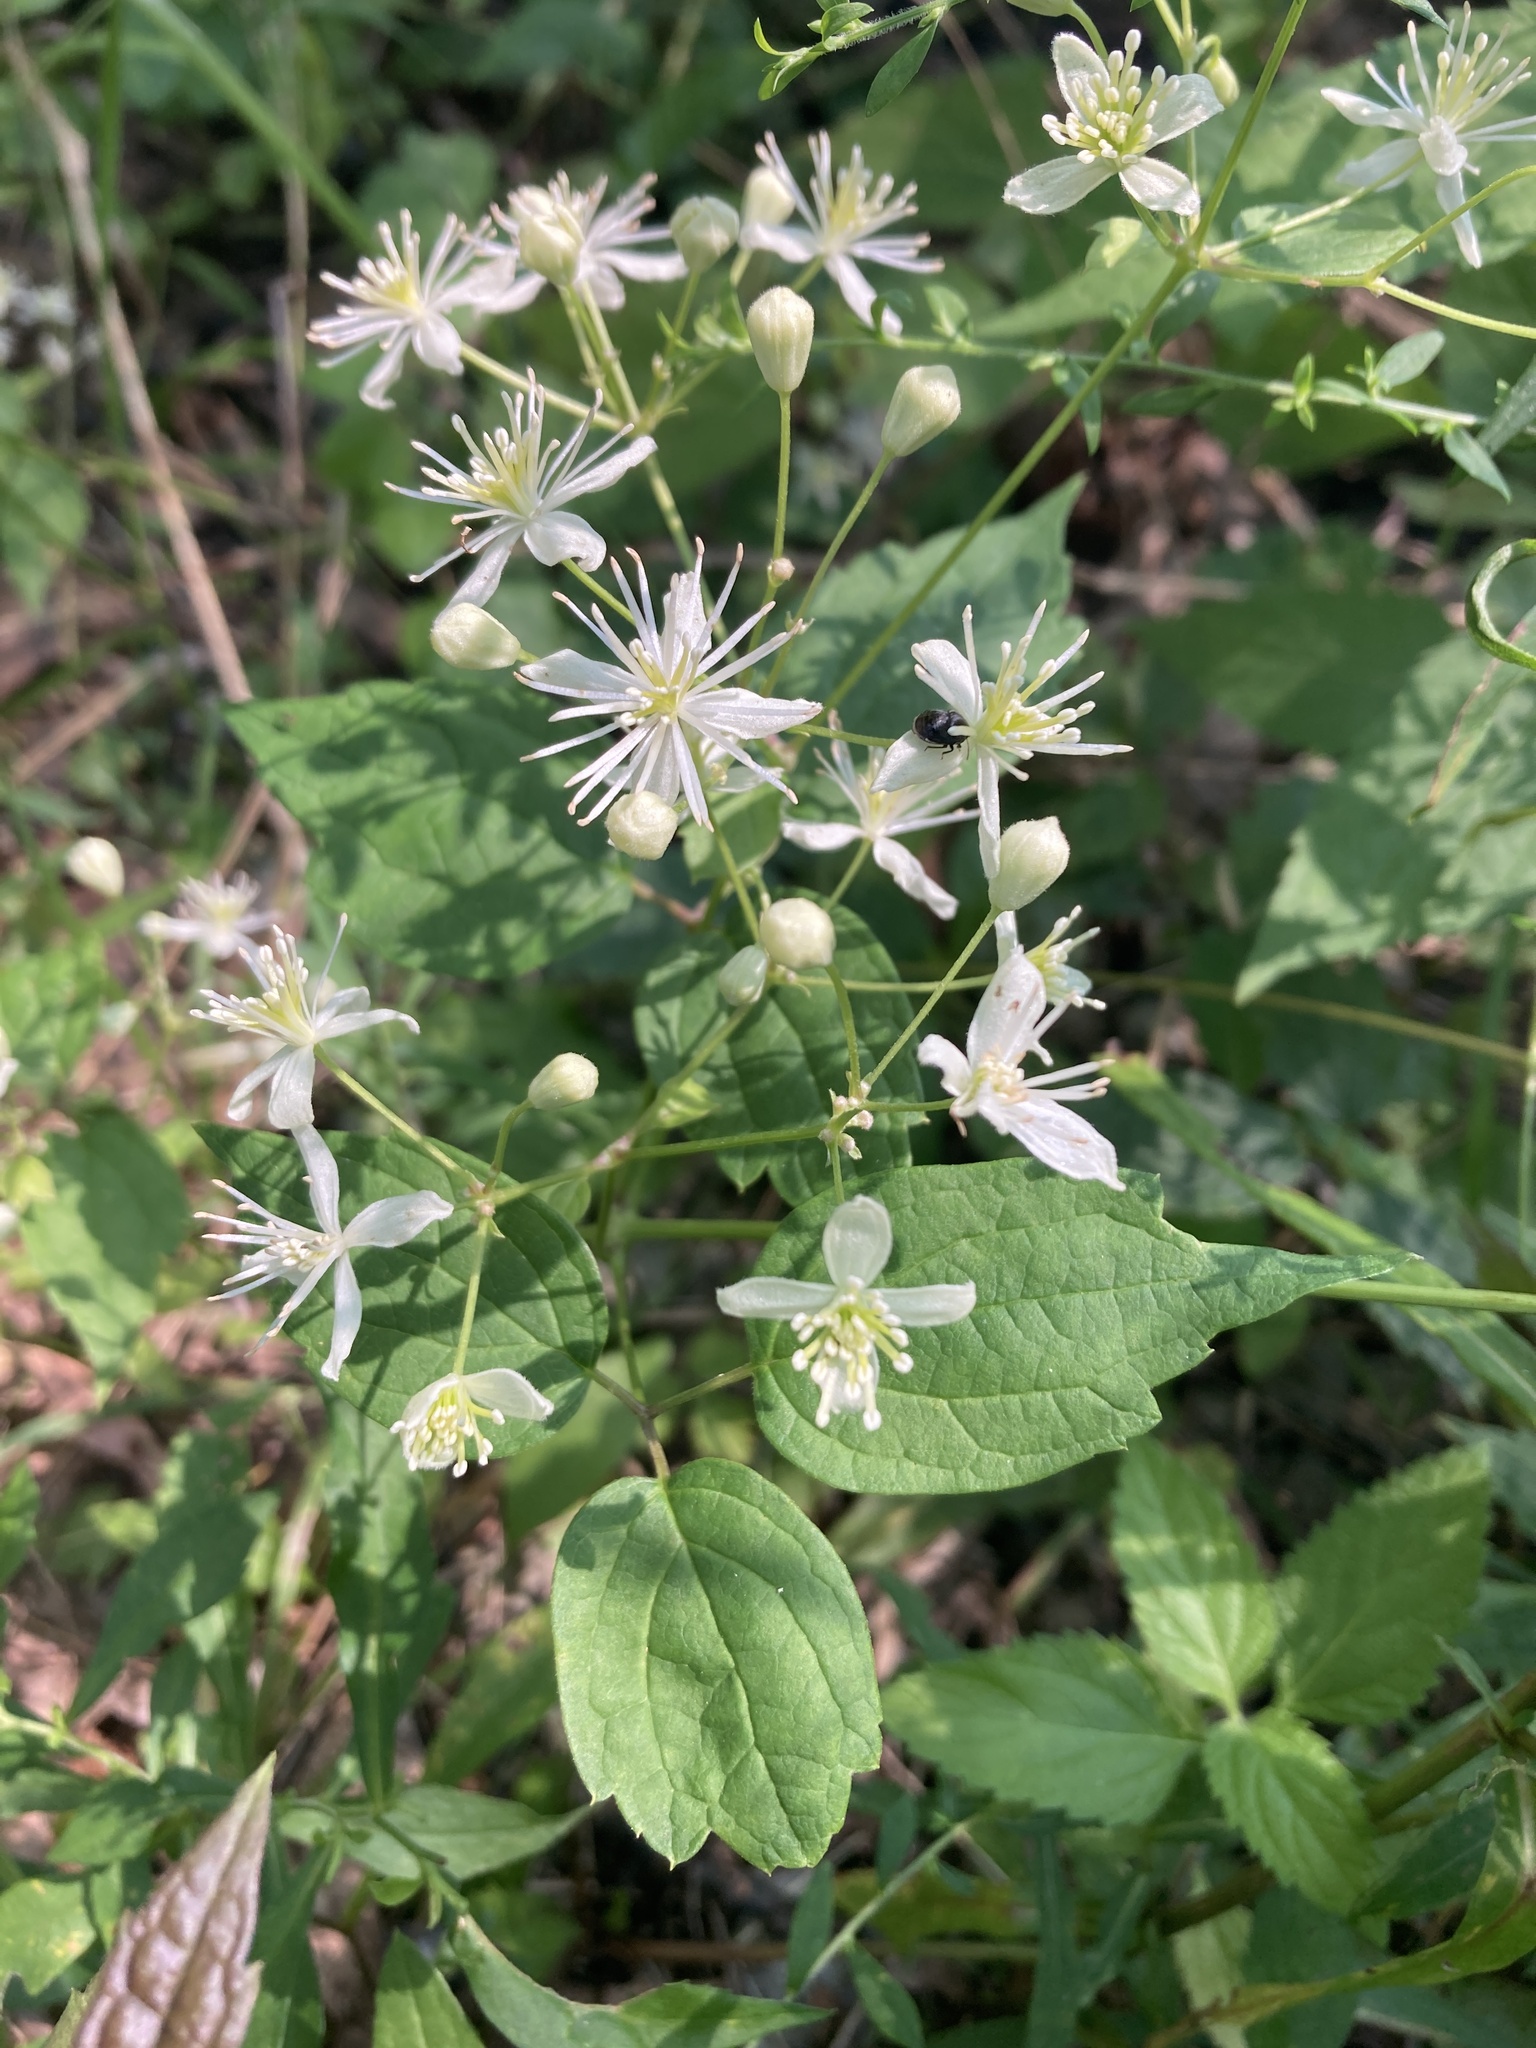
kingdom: Plantae
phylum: Tracheophyta
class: Magnoliopsida
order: Ranunculales
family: Ranunculaceae
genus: Clematis
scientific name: Clematis virginiana
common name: Virgin's-bower
